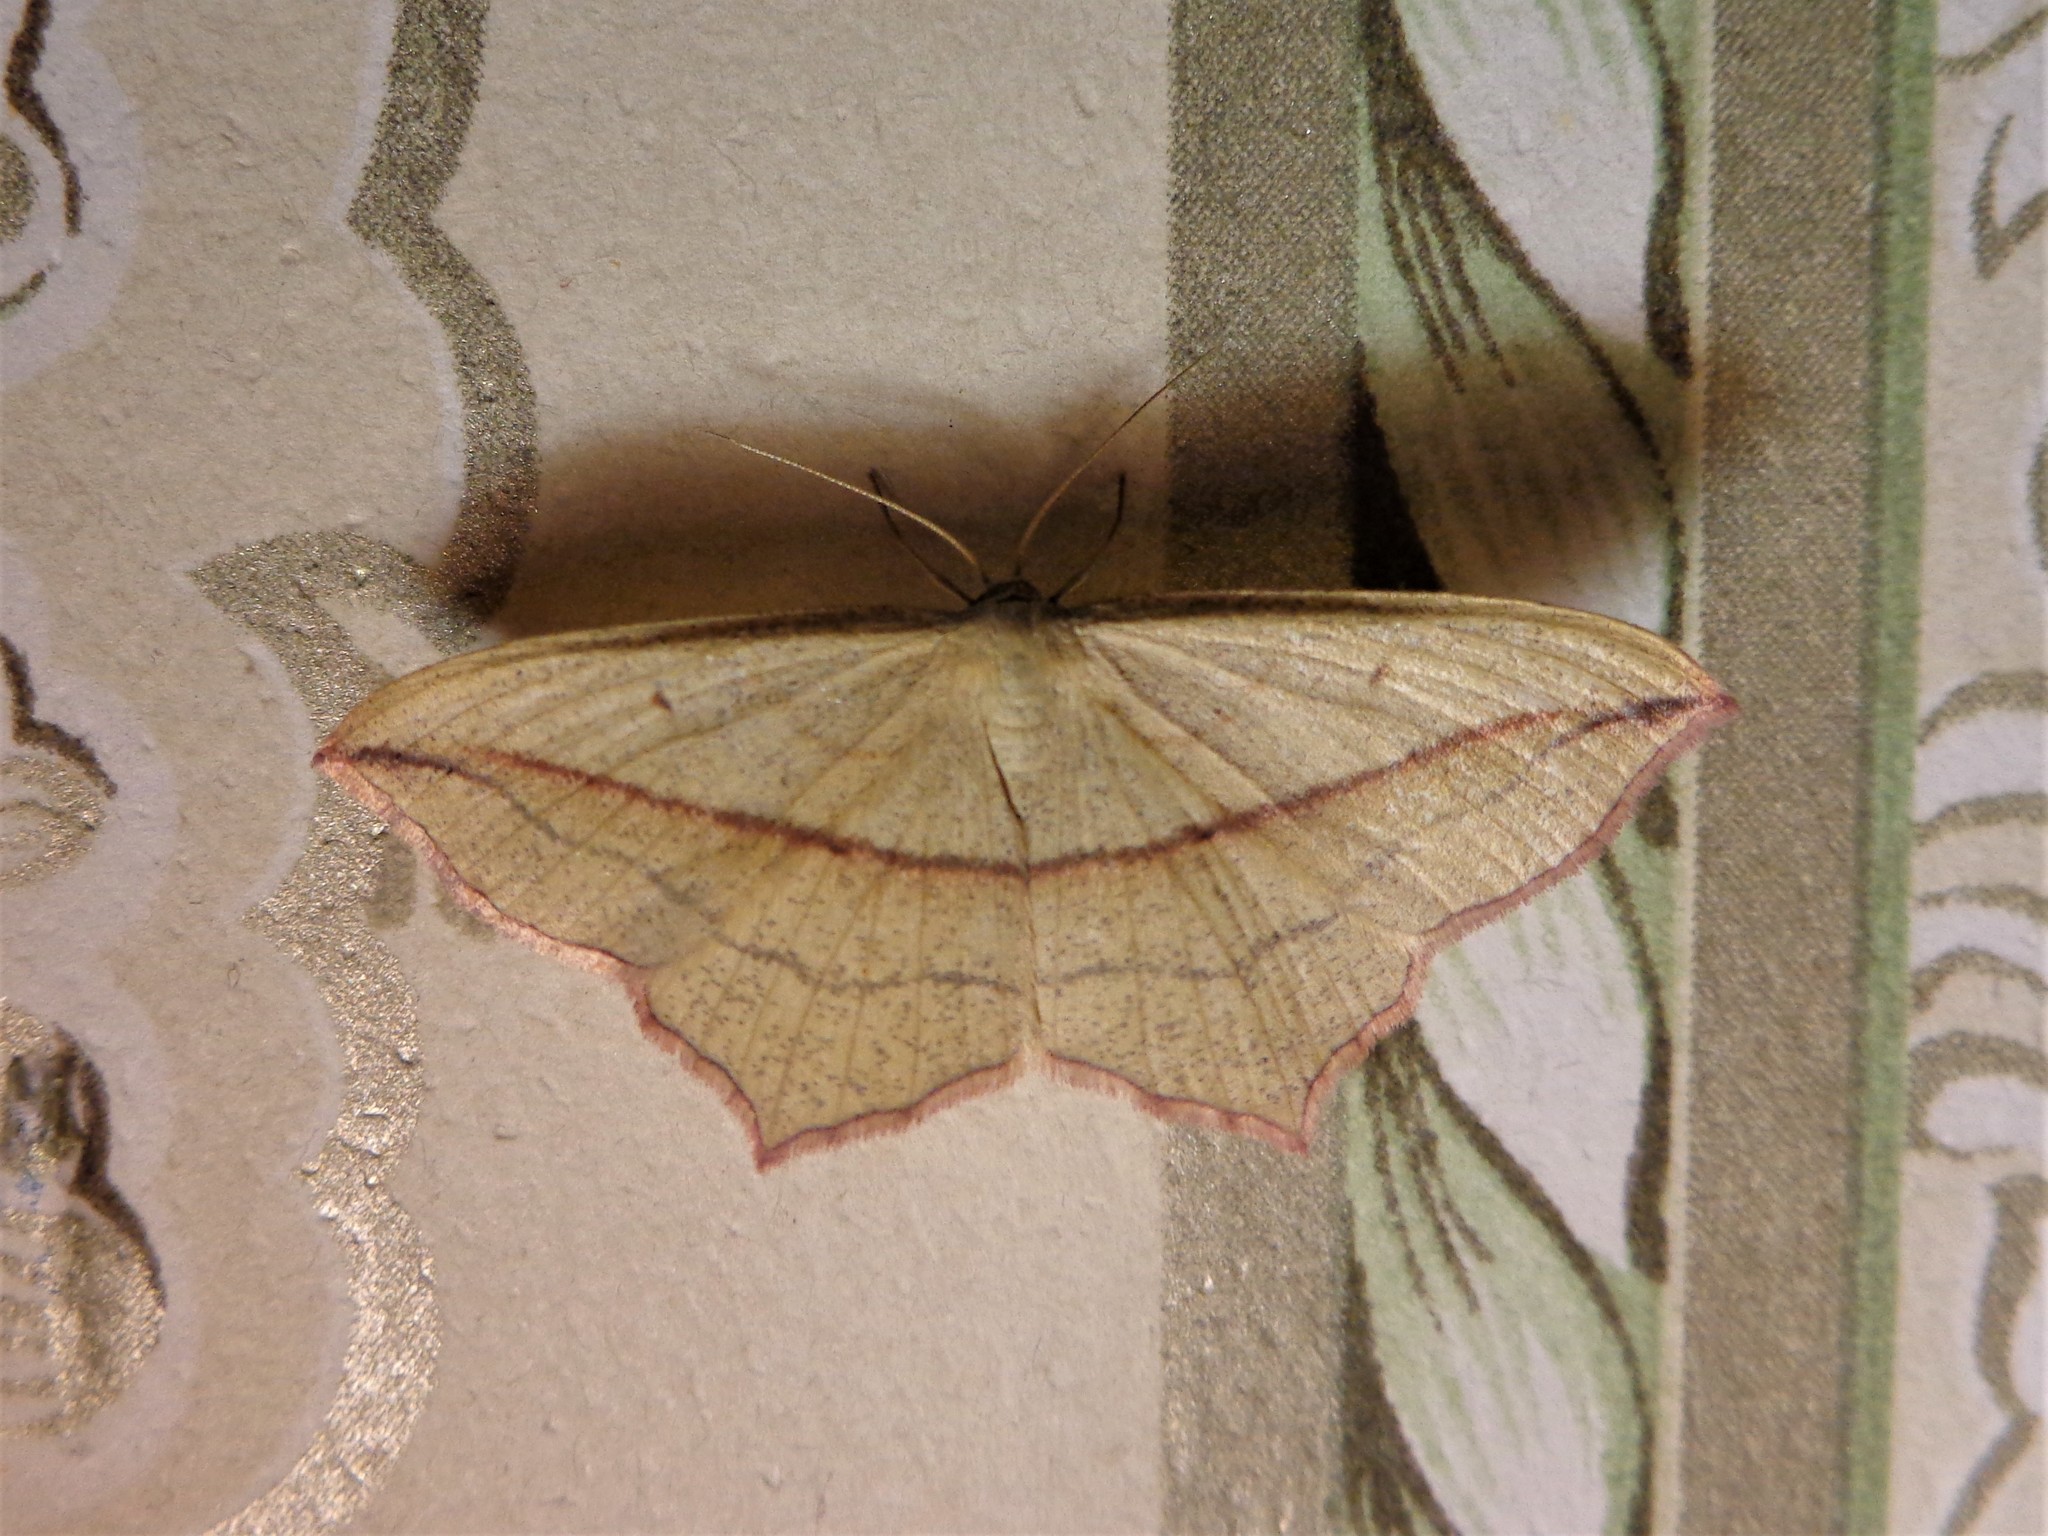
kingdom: Animalia
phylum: Arthropoda
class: Insecta
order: Lepidoptera
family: Geometridae
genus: Timandra
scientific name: Timandra comae
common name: Blood-vein
